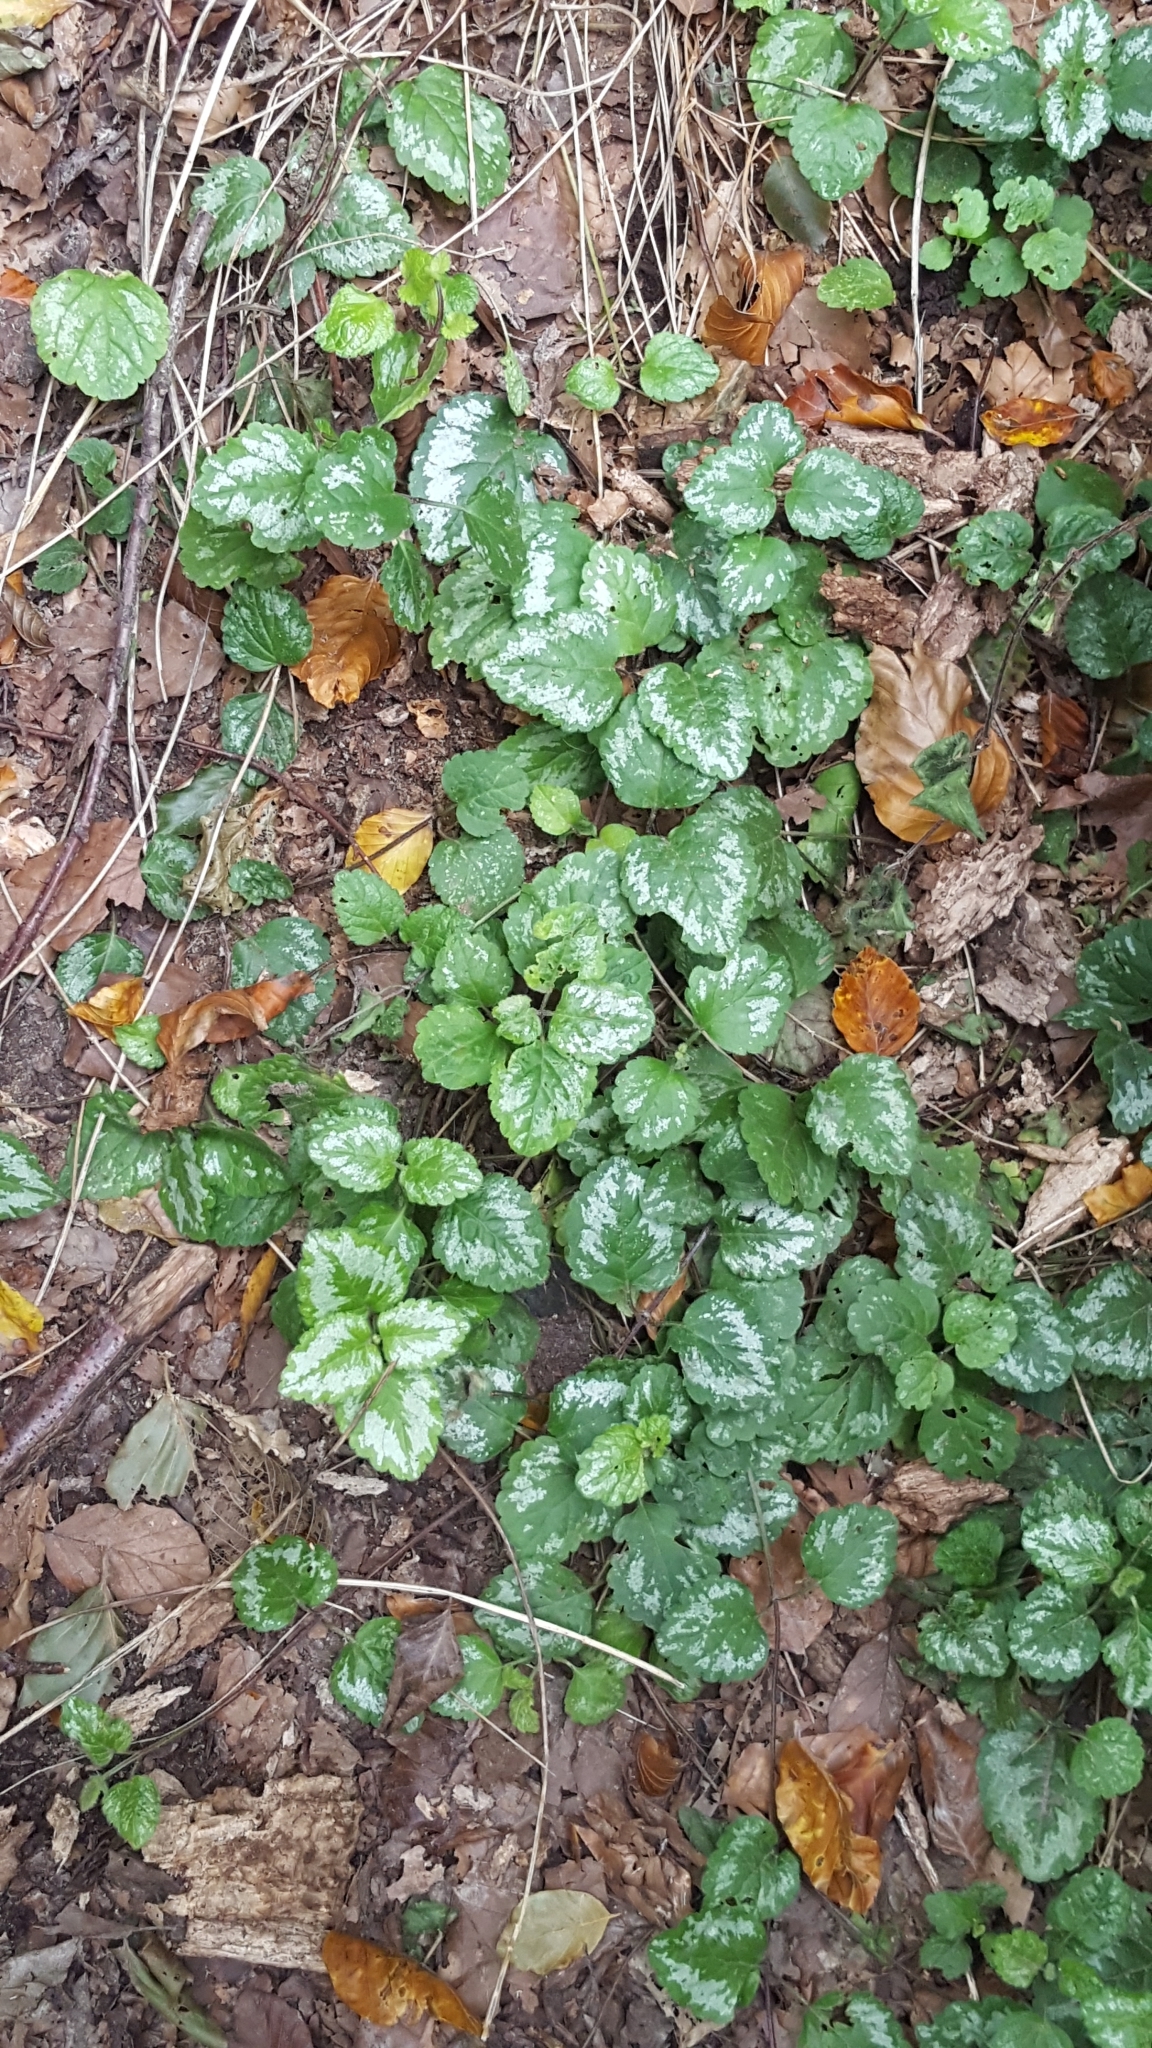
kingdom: Plantae
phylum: Tracheophyta
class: Magnoliopsida
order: Lamiales
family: Lamiaceae
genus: Lamium
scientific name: Lamium galeobdolon
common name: Yellow archangel
